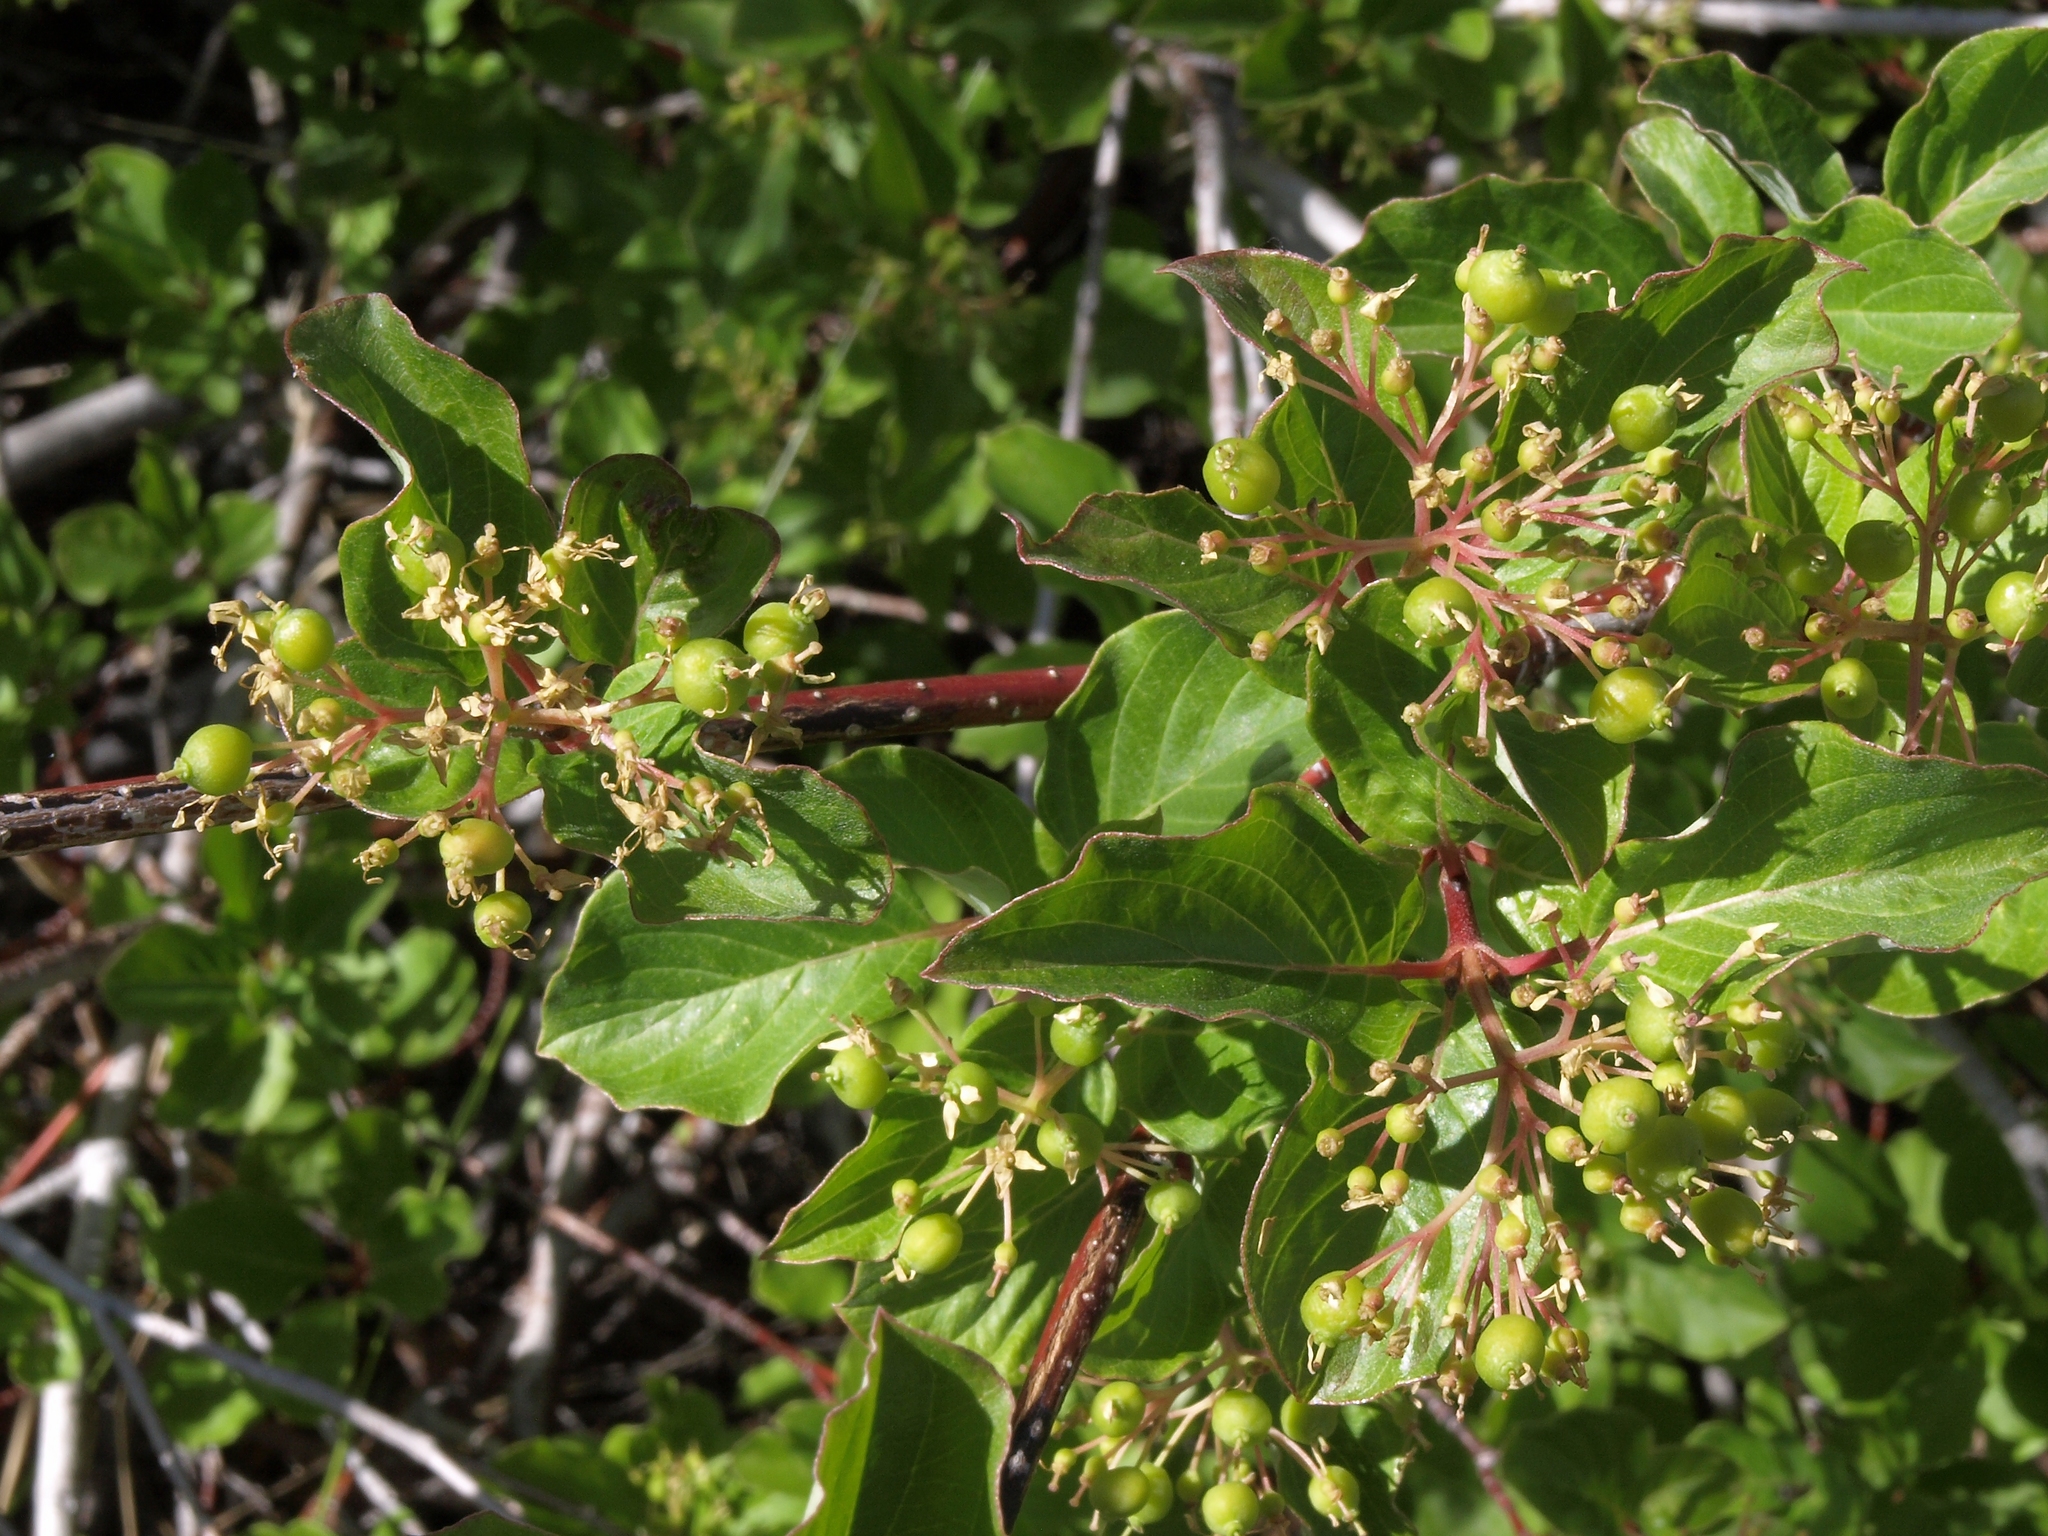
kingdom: Plantae
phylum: Tracheophyta
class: Magnoliopsida
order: Cornales
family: Cornaceae
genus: Cornus
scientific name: Cornus sericea
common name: Red-osier dogwood
